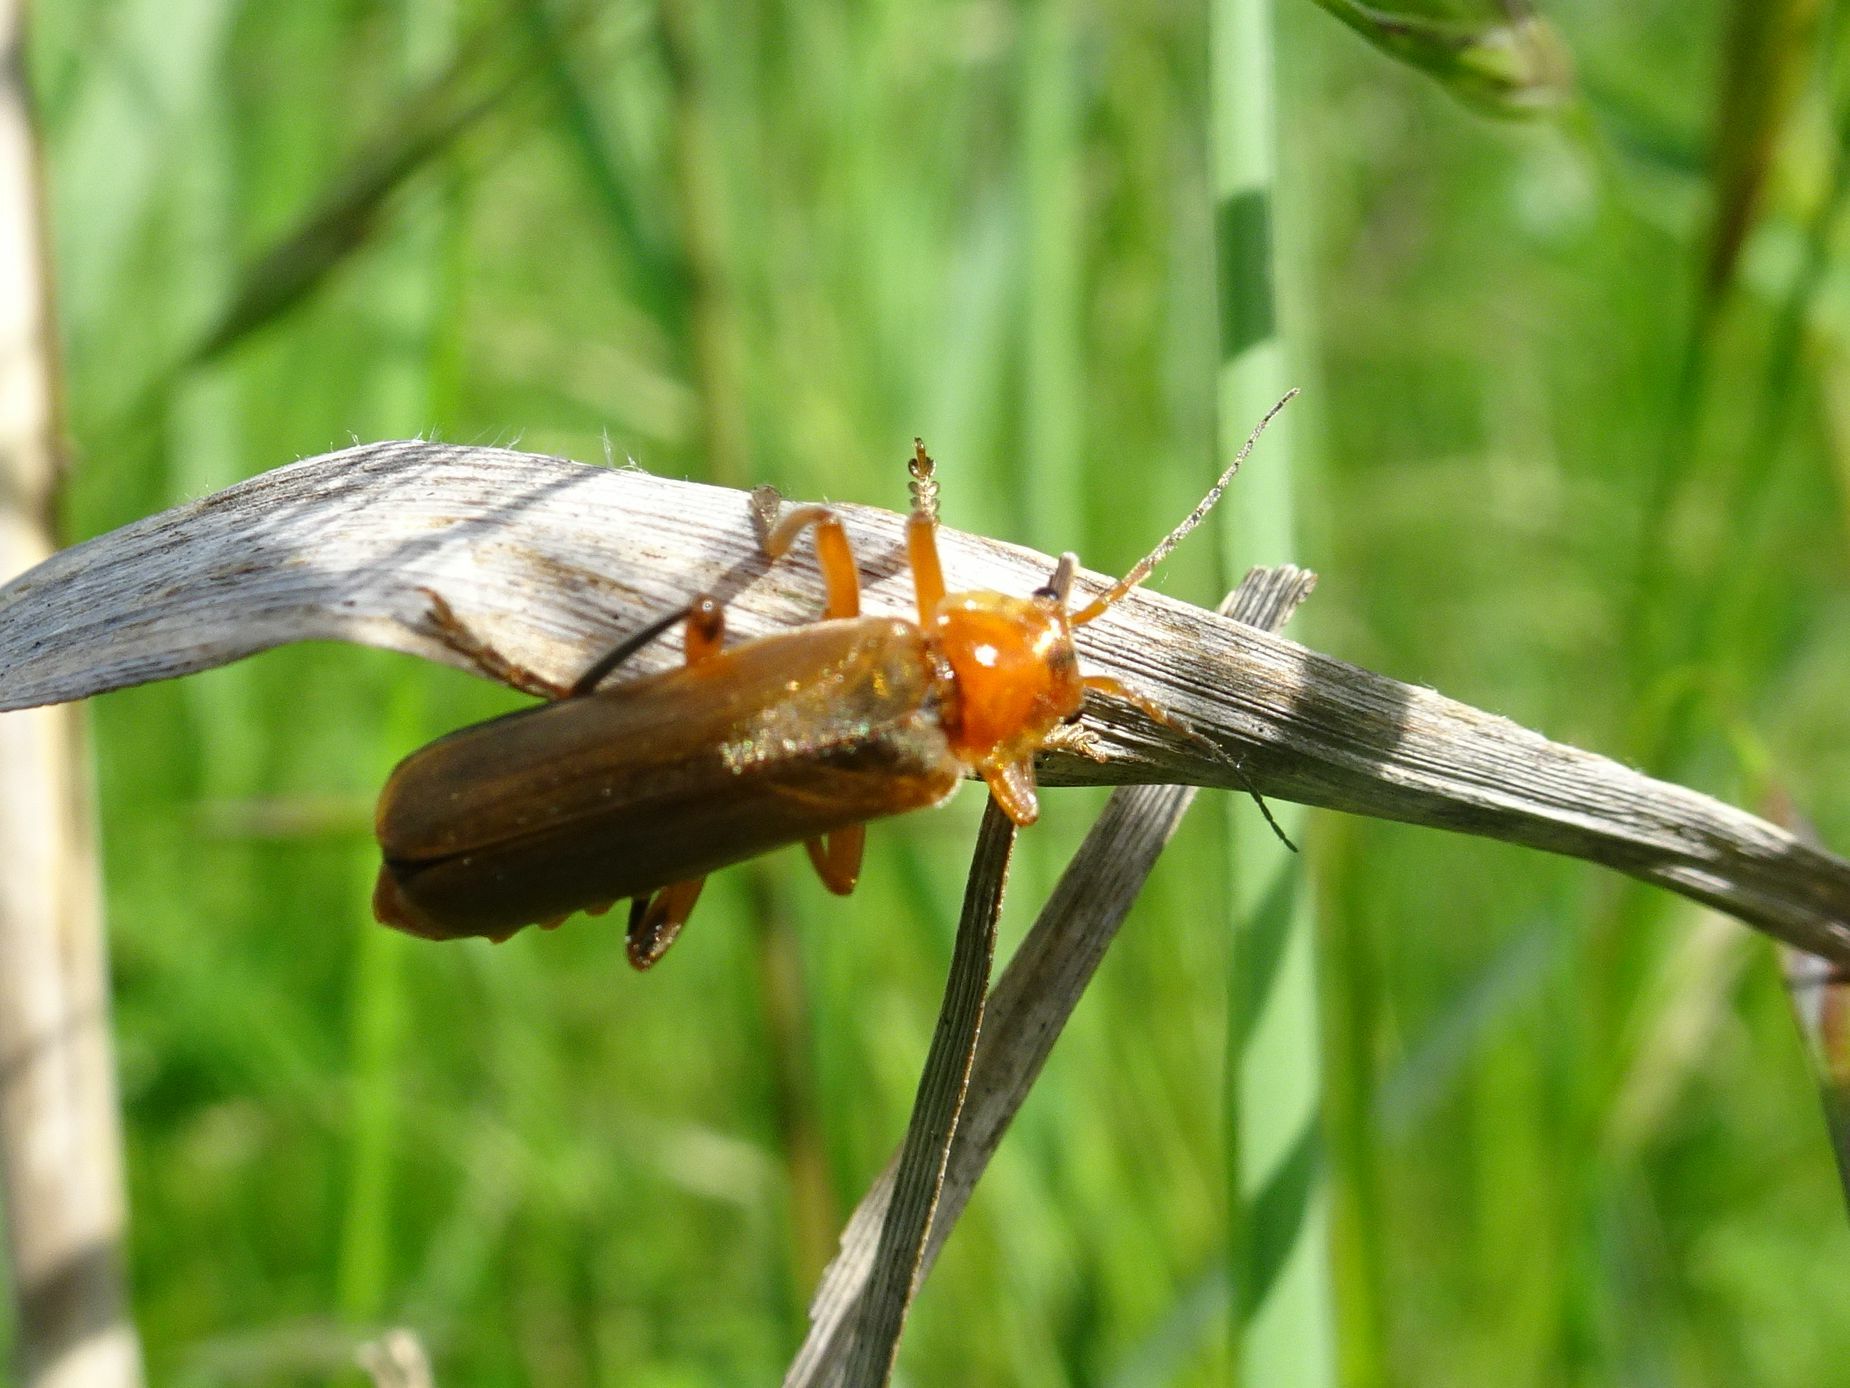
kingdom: Animalia
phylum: Arthropoda
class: Insecta
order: Coleoptera
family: Cantharidae
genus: Cantharis
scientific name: Cantharis livida
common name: Livid soldier beetle
